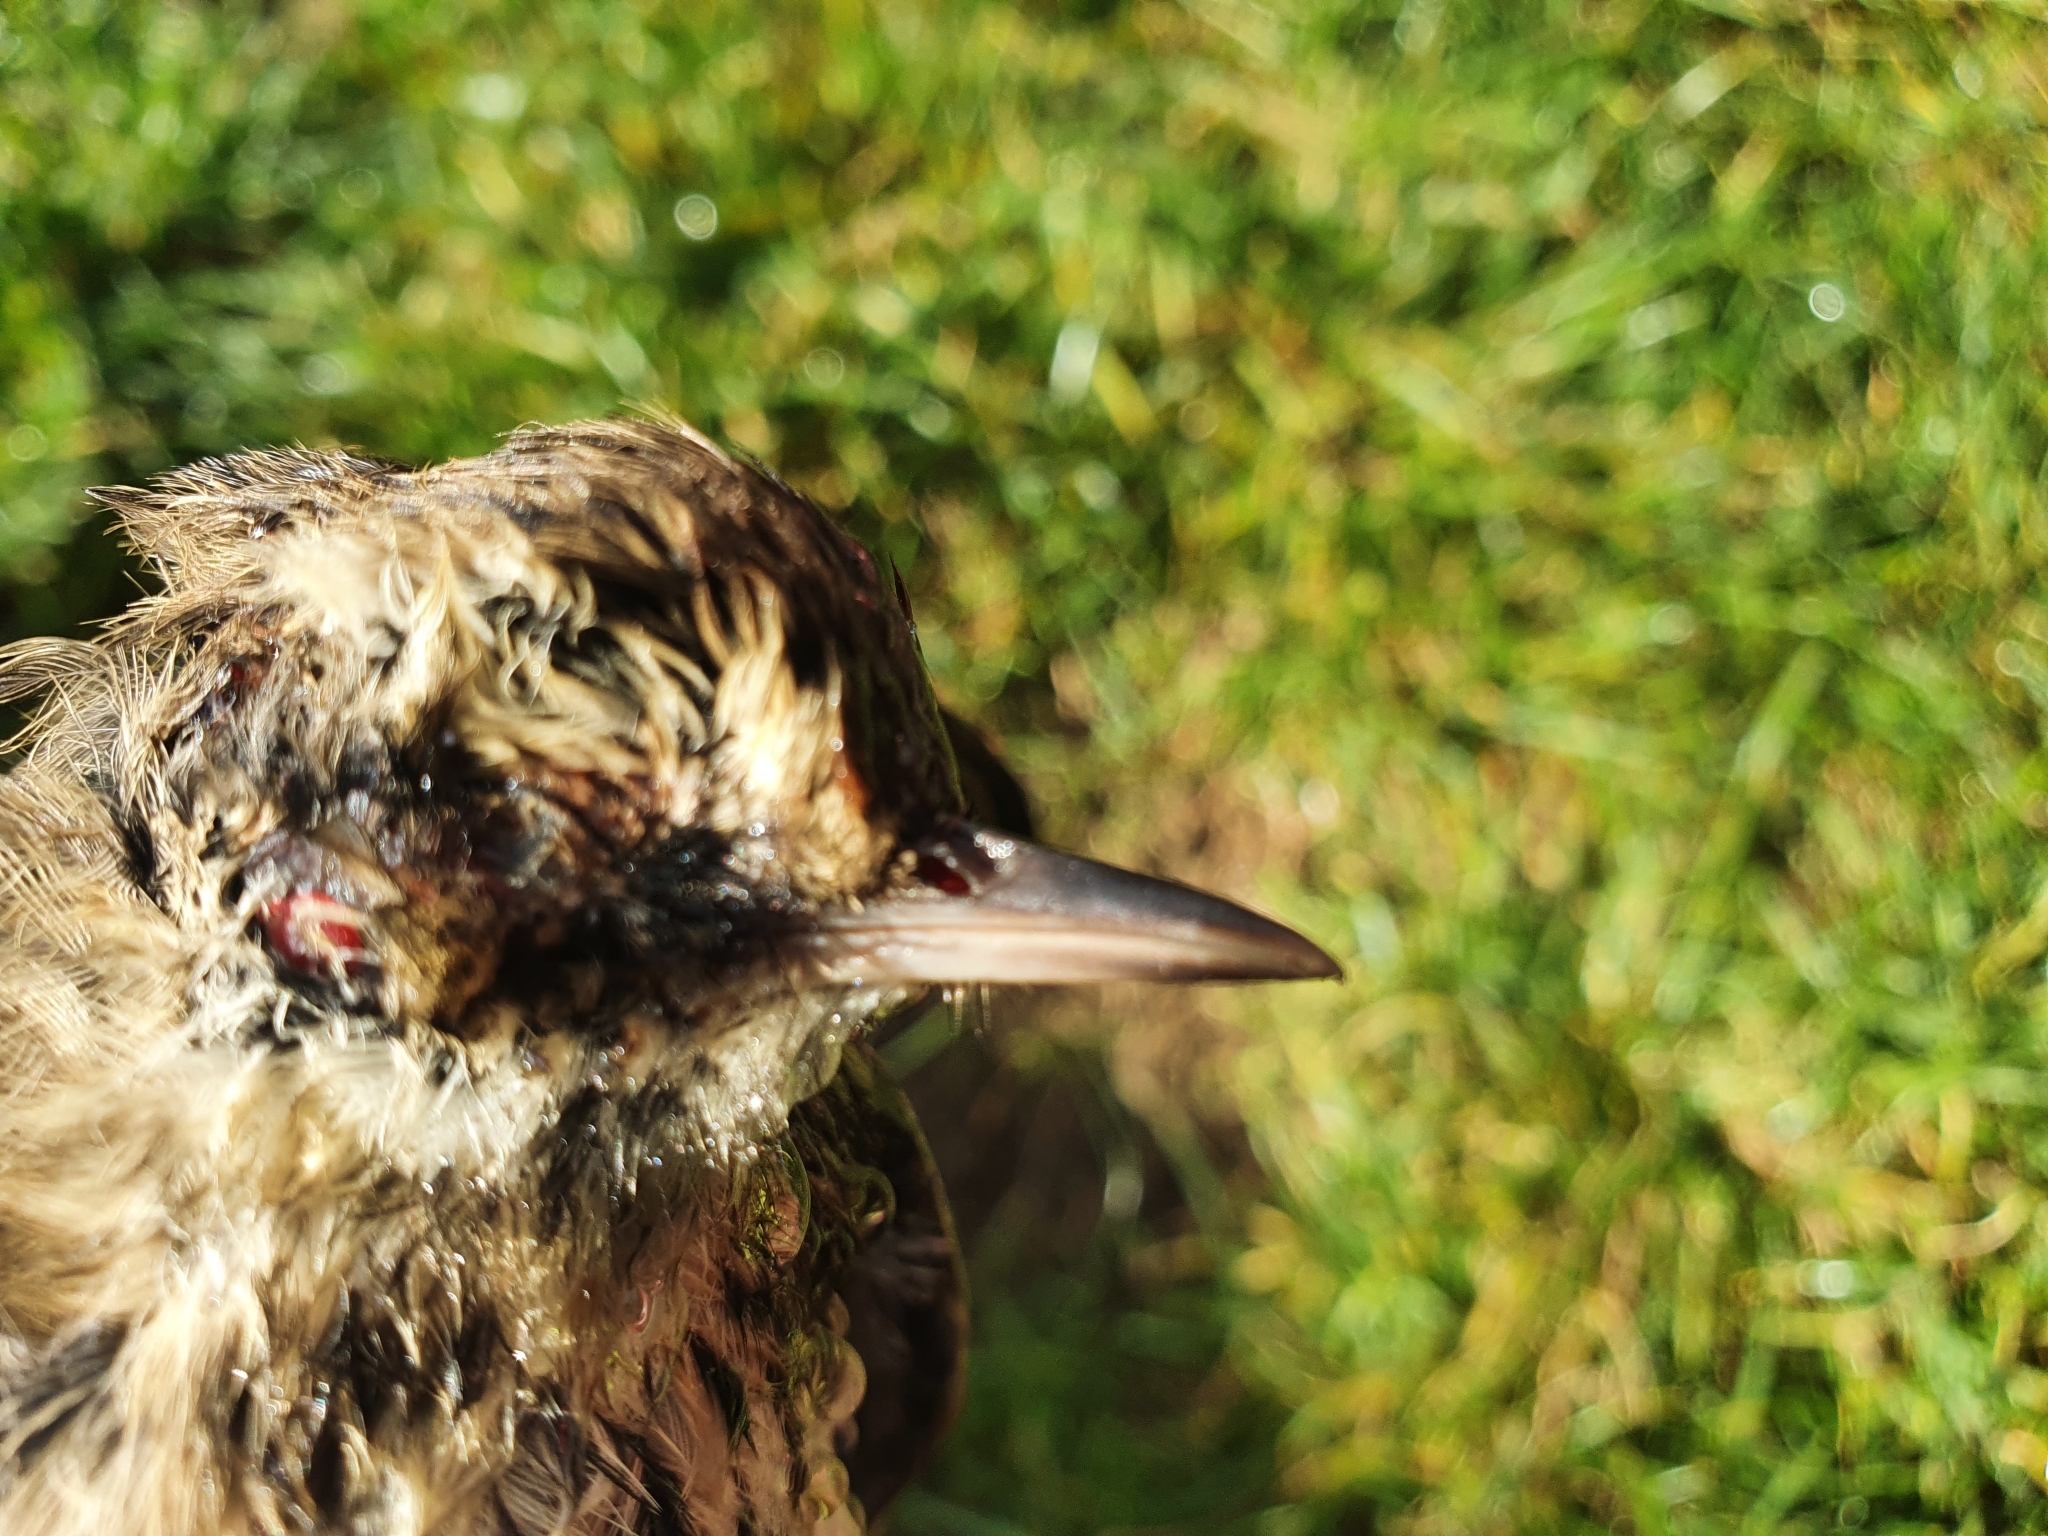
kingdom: Animalia
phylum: Chordata
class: Aves
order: Passeriformes
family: Motacillidae
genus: Anthus
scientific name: Anthus novaeseelandiae
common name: New zealand pipit
